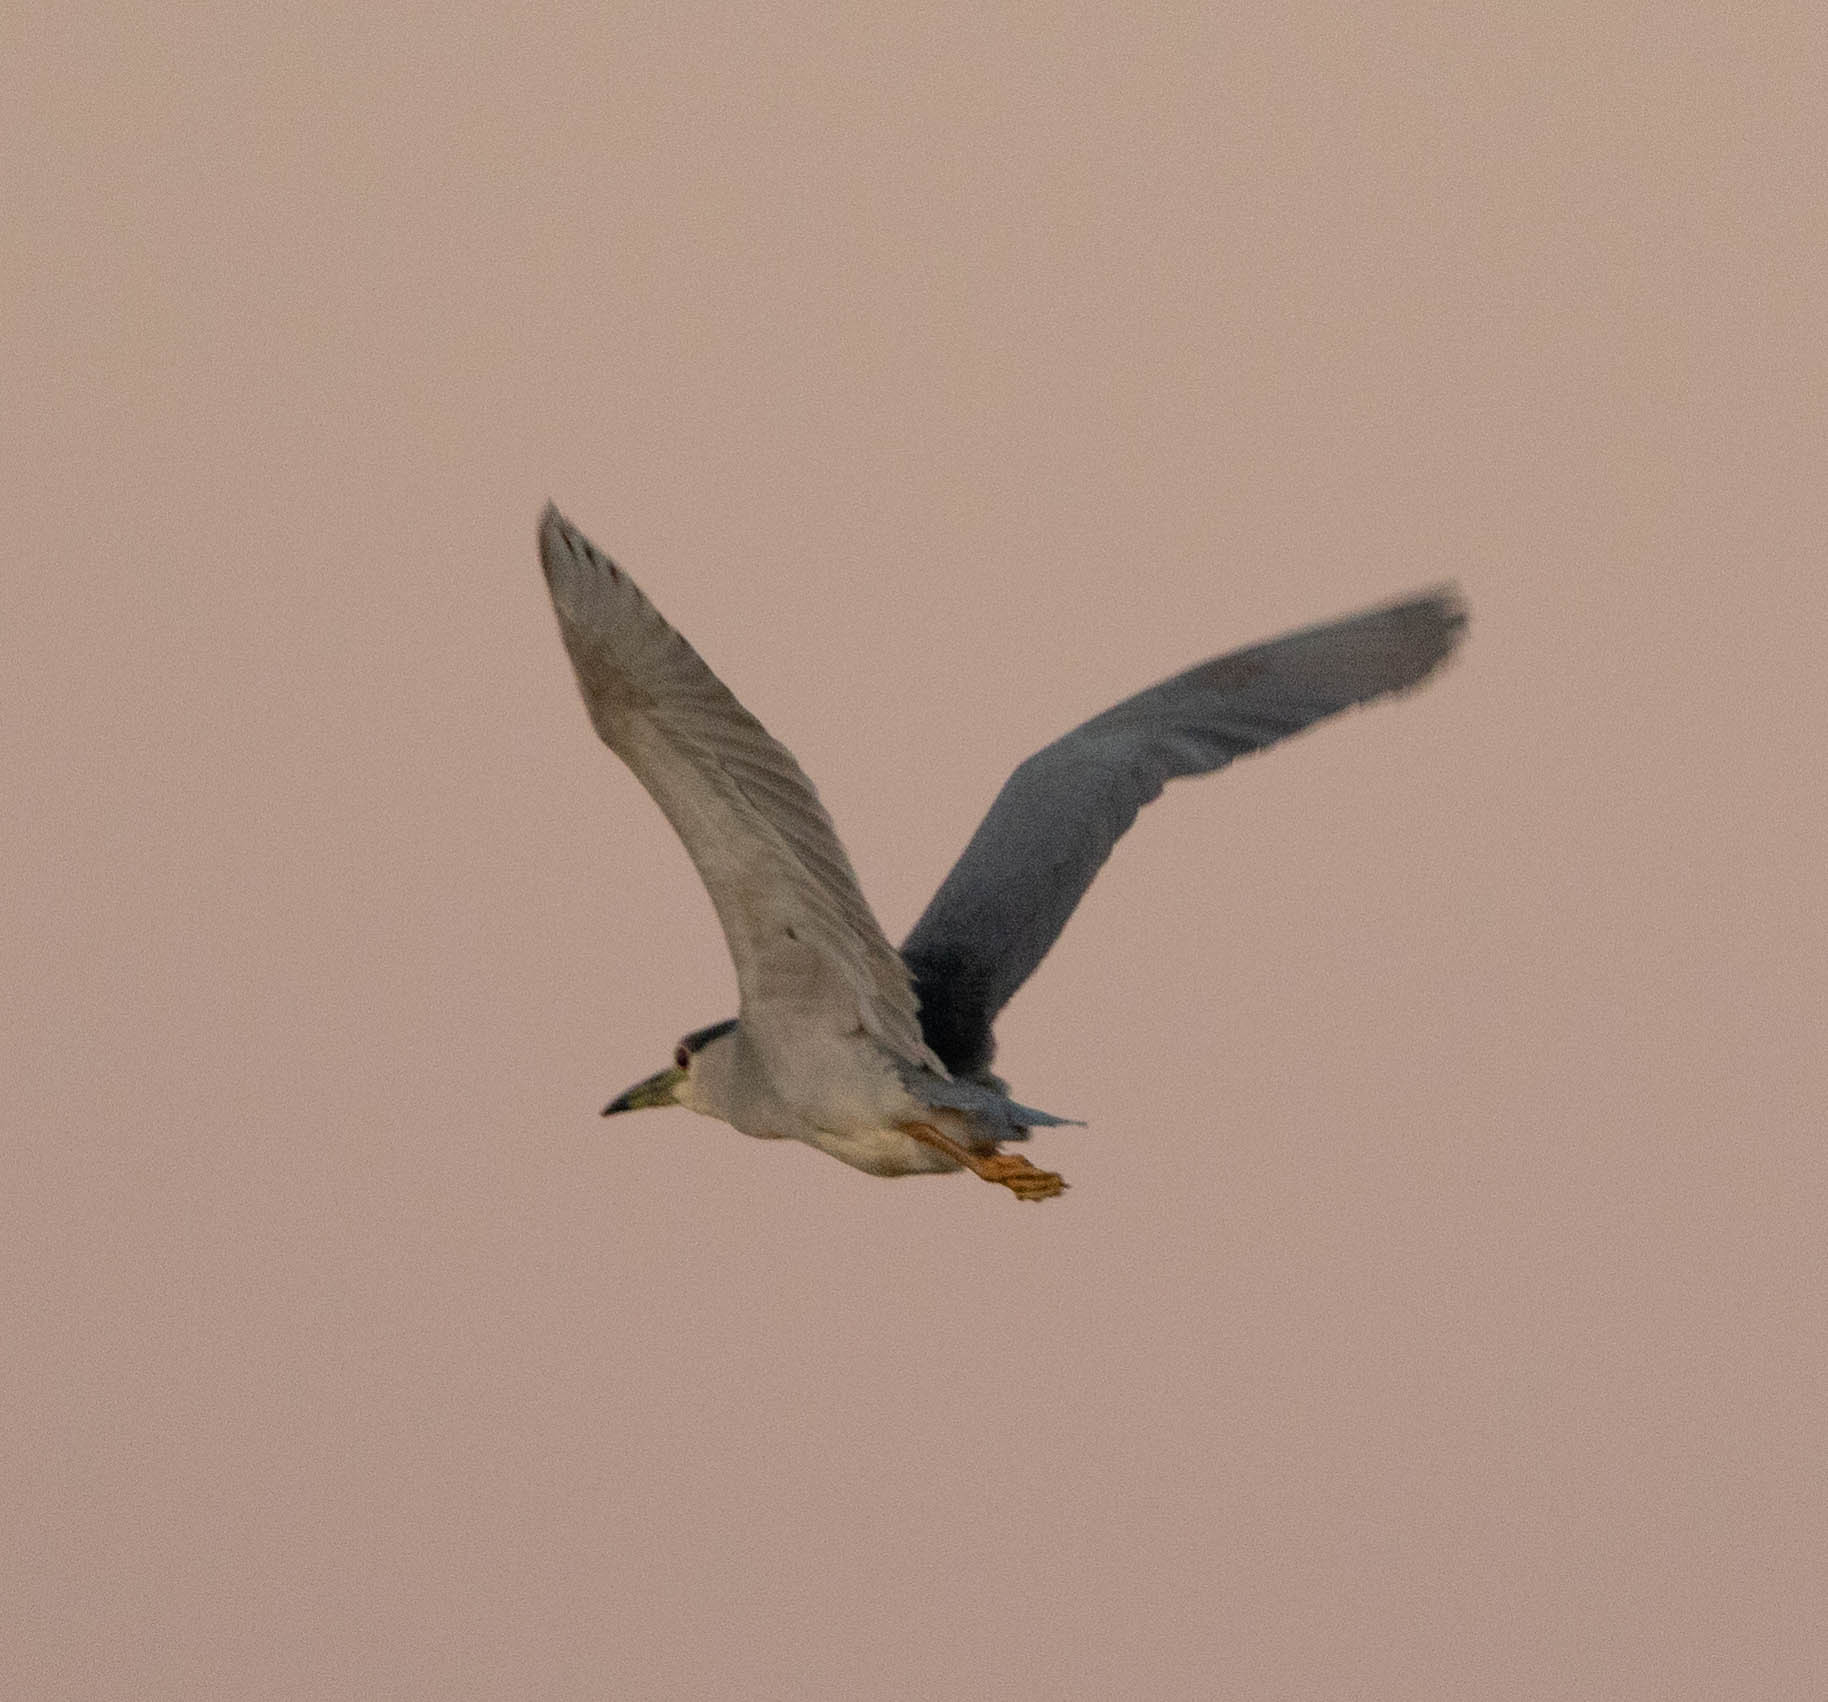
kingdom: Animalia
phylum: Chordata
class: Aves
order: Pelecaniformes
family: Ardeidae
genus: Nycticorax
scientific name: Nycticorax nycticorax
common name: Black-crowned night heron
